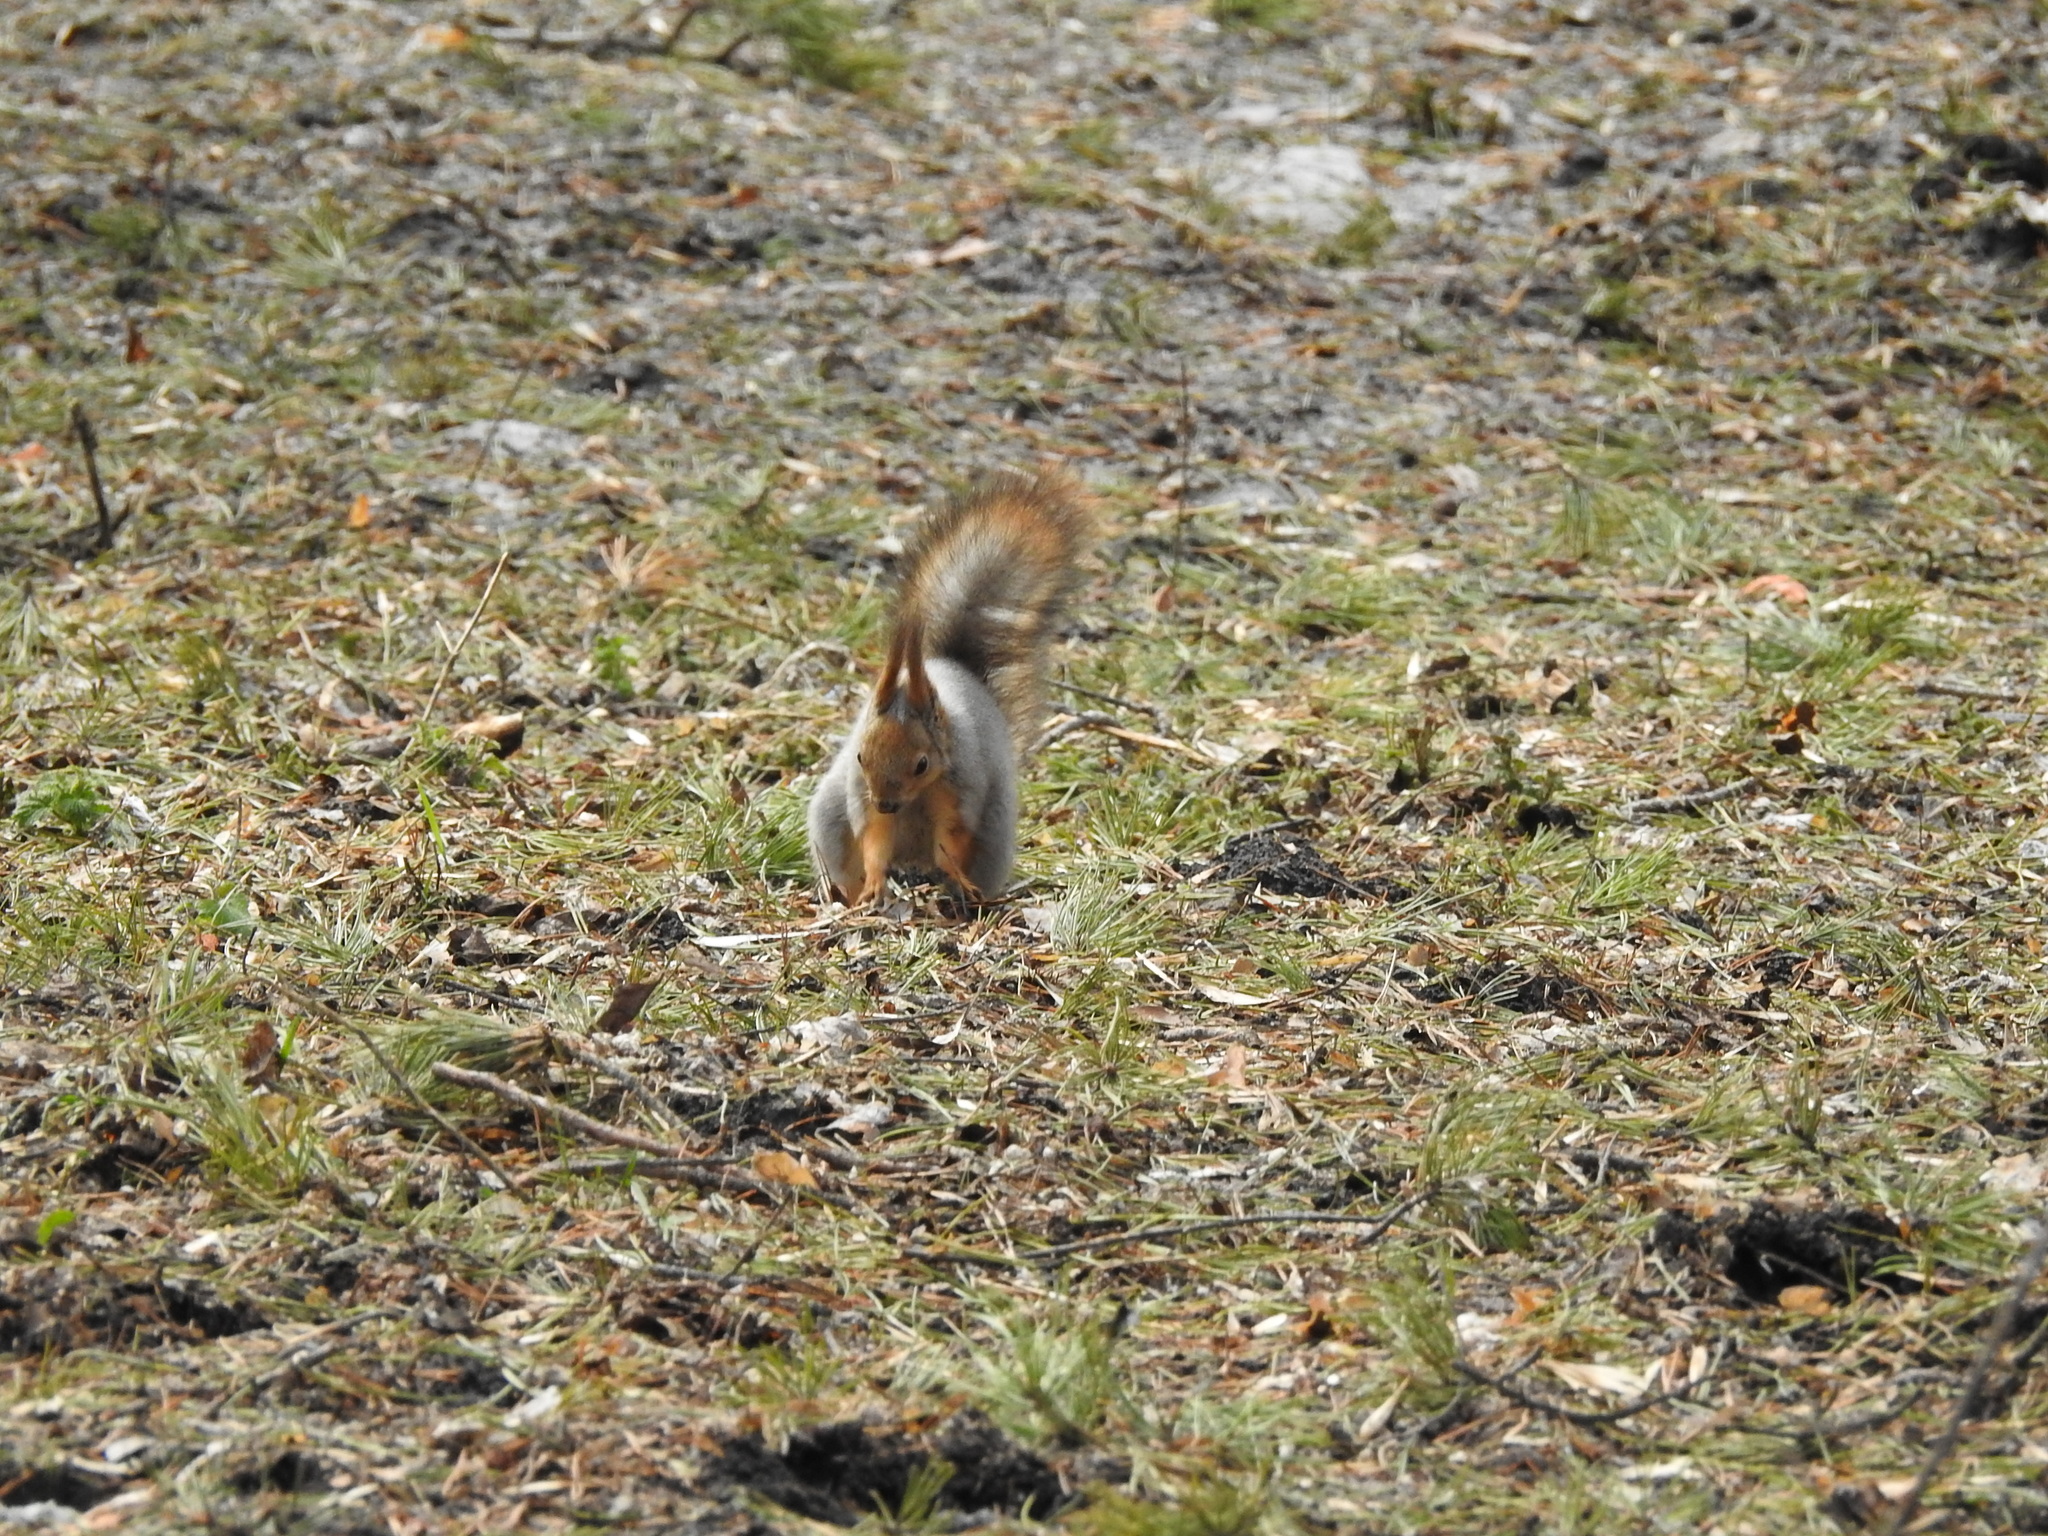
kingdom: Animalia
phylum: Chordata
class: Mammalia
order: Rodentia
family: Sciuridae
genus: Sciurus
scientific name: Sciurus vulgaris
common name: Eurasian red squirrel
